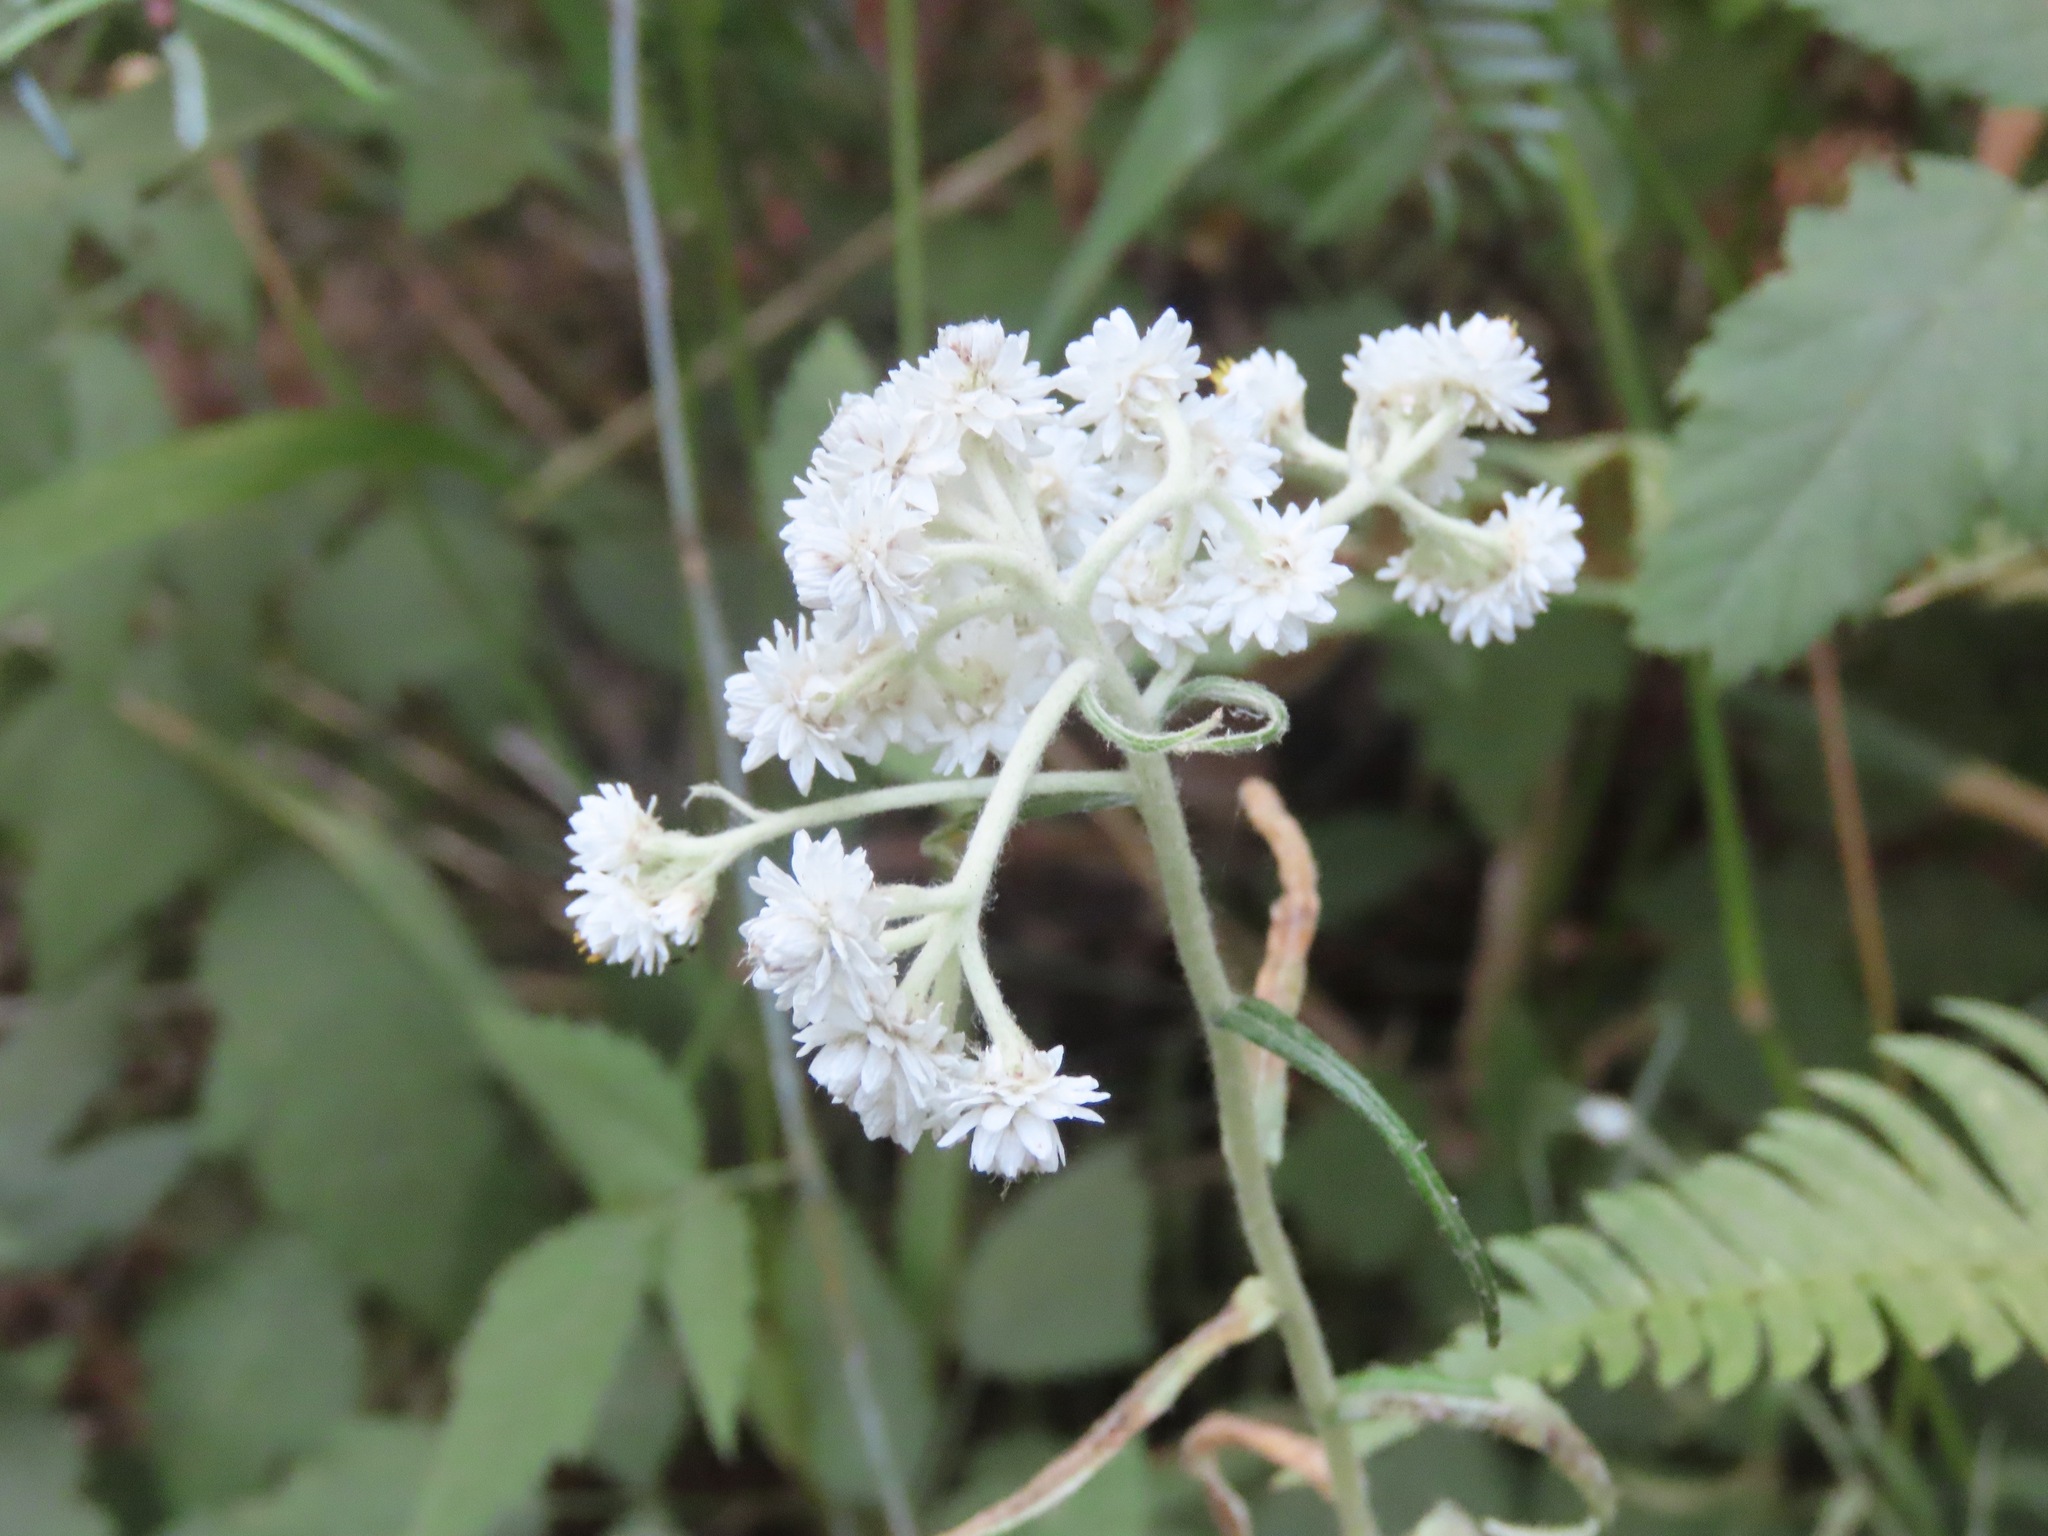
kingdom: Plantae
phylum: Tracheophyta
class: Magnoliopsida
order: Asterales
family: Asteraceae
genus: Anaphalis
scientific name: Anaphalis margaritacea
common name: Pearly everlasting
